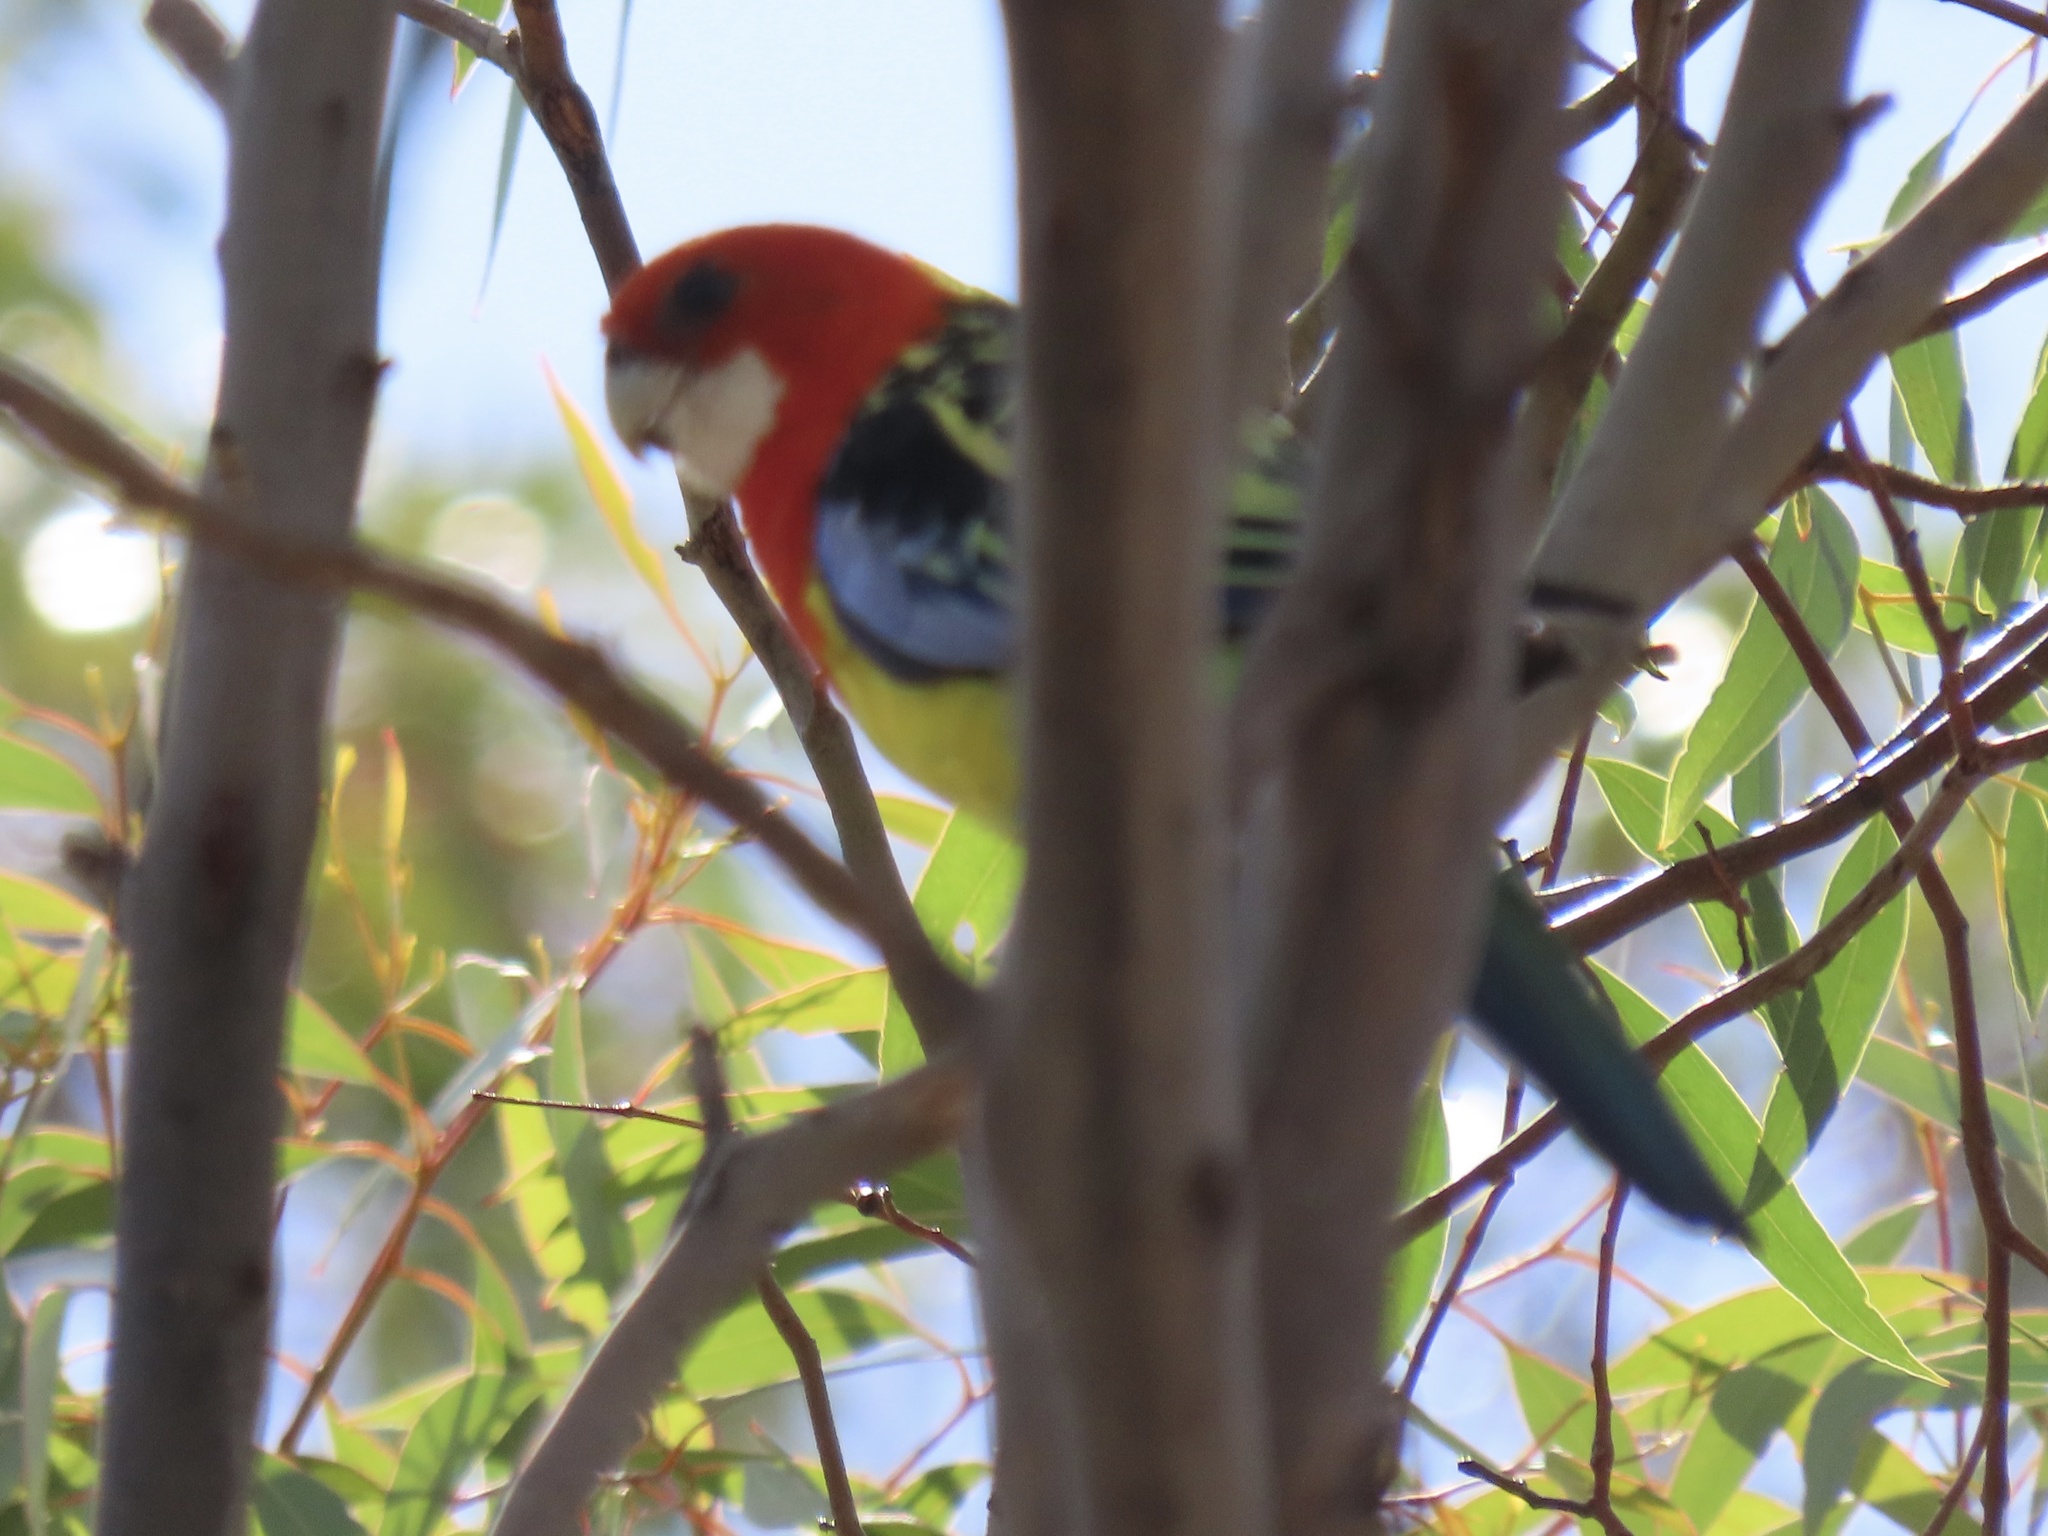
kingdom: Animalia
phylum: Chordata
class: Aves
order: Psittaciformes
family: Psittacidae
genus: Platycercus
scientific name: Platycercus eximius
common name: Eastern rosella
